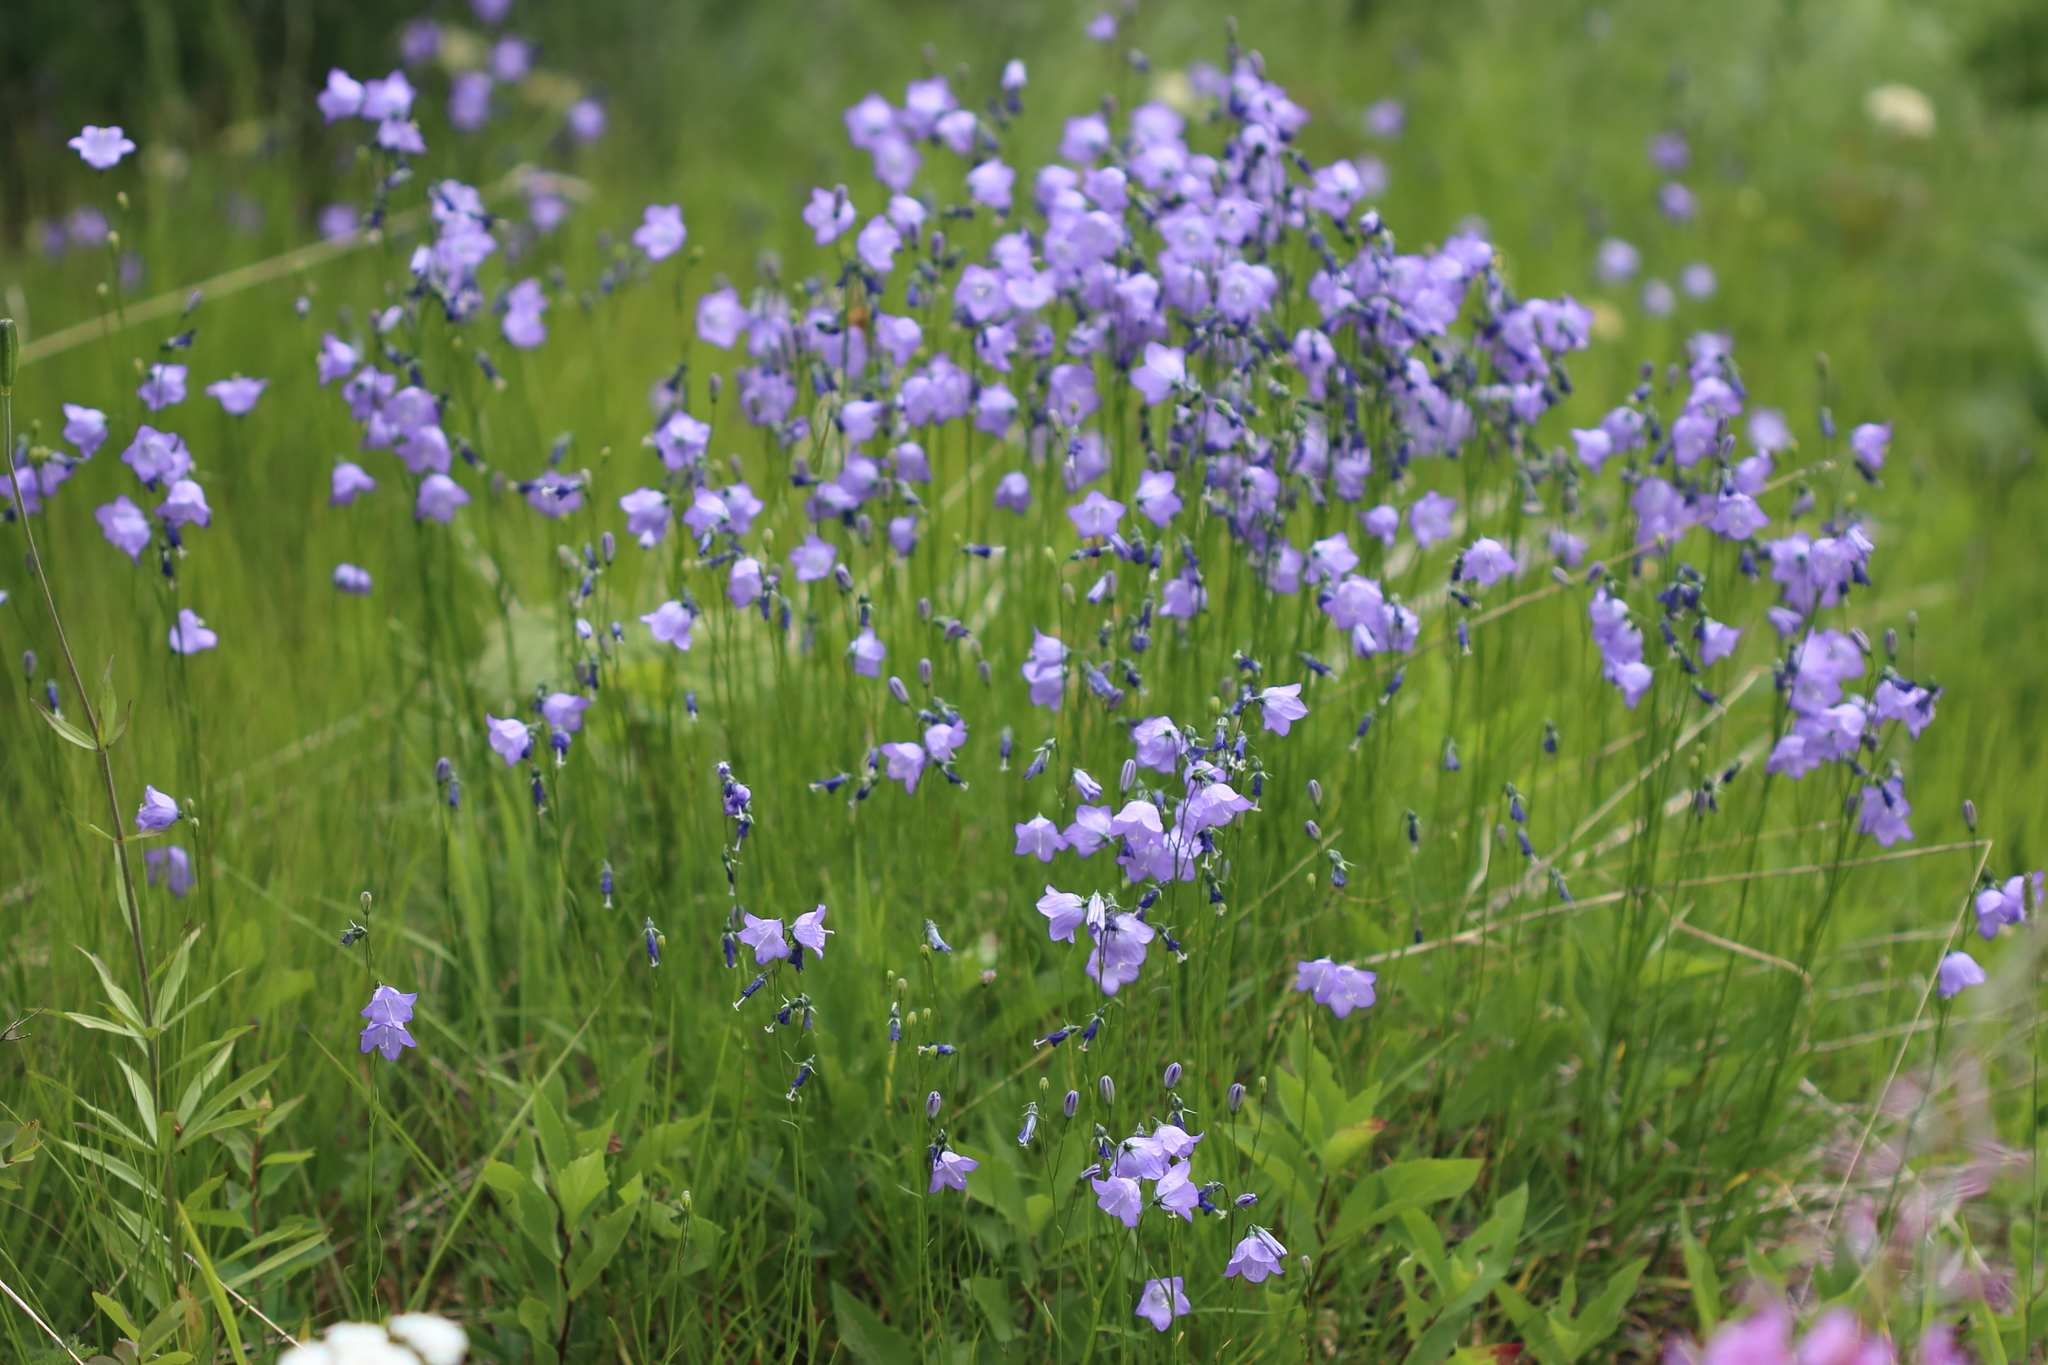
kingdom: Plantae
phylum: Tracheophyta
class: Magnoliopsida
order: Asterales
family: Campanulaceae
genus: Campanula
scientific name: Campanula alaskana
